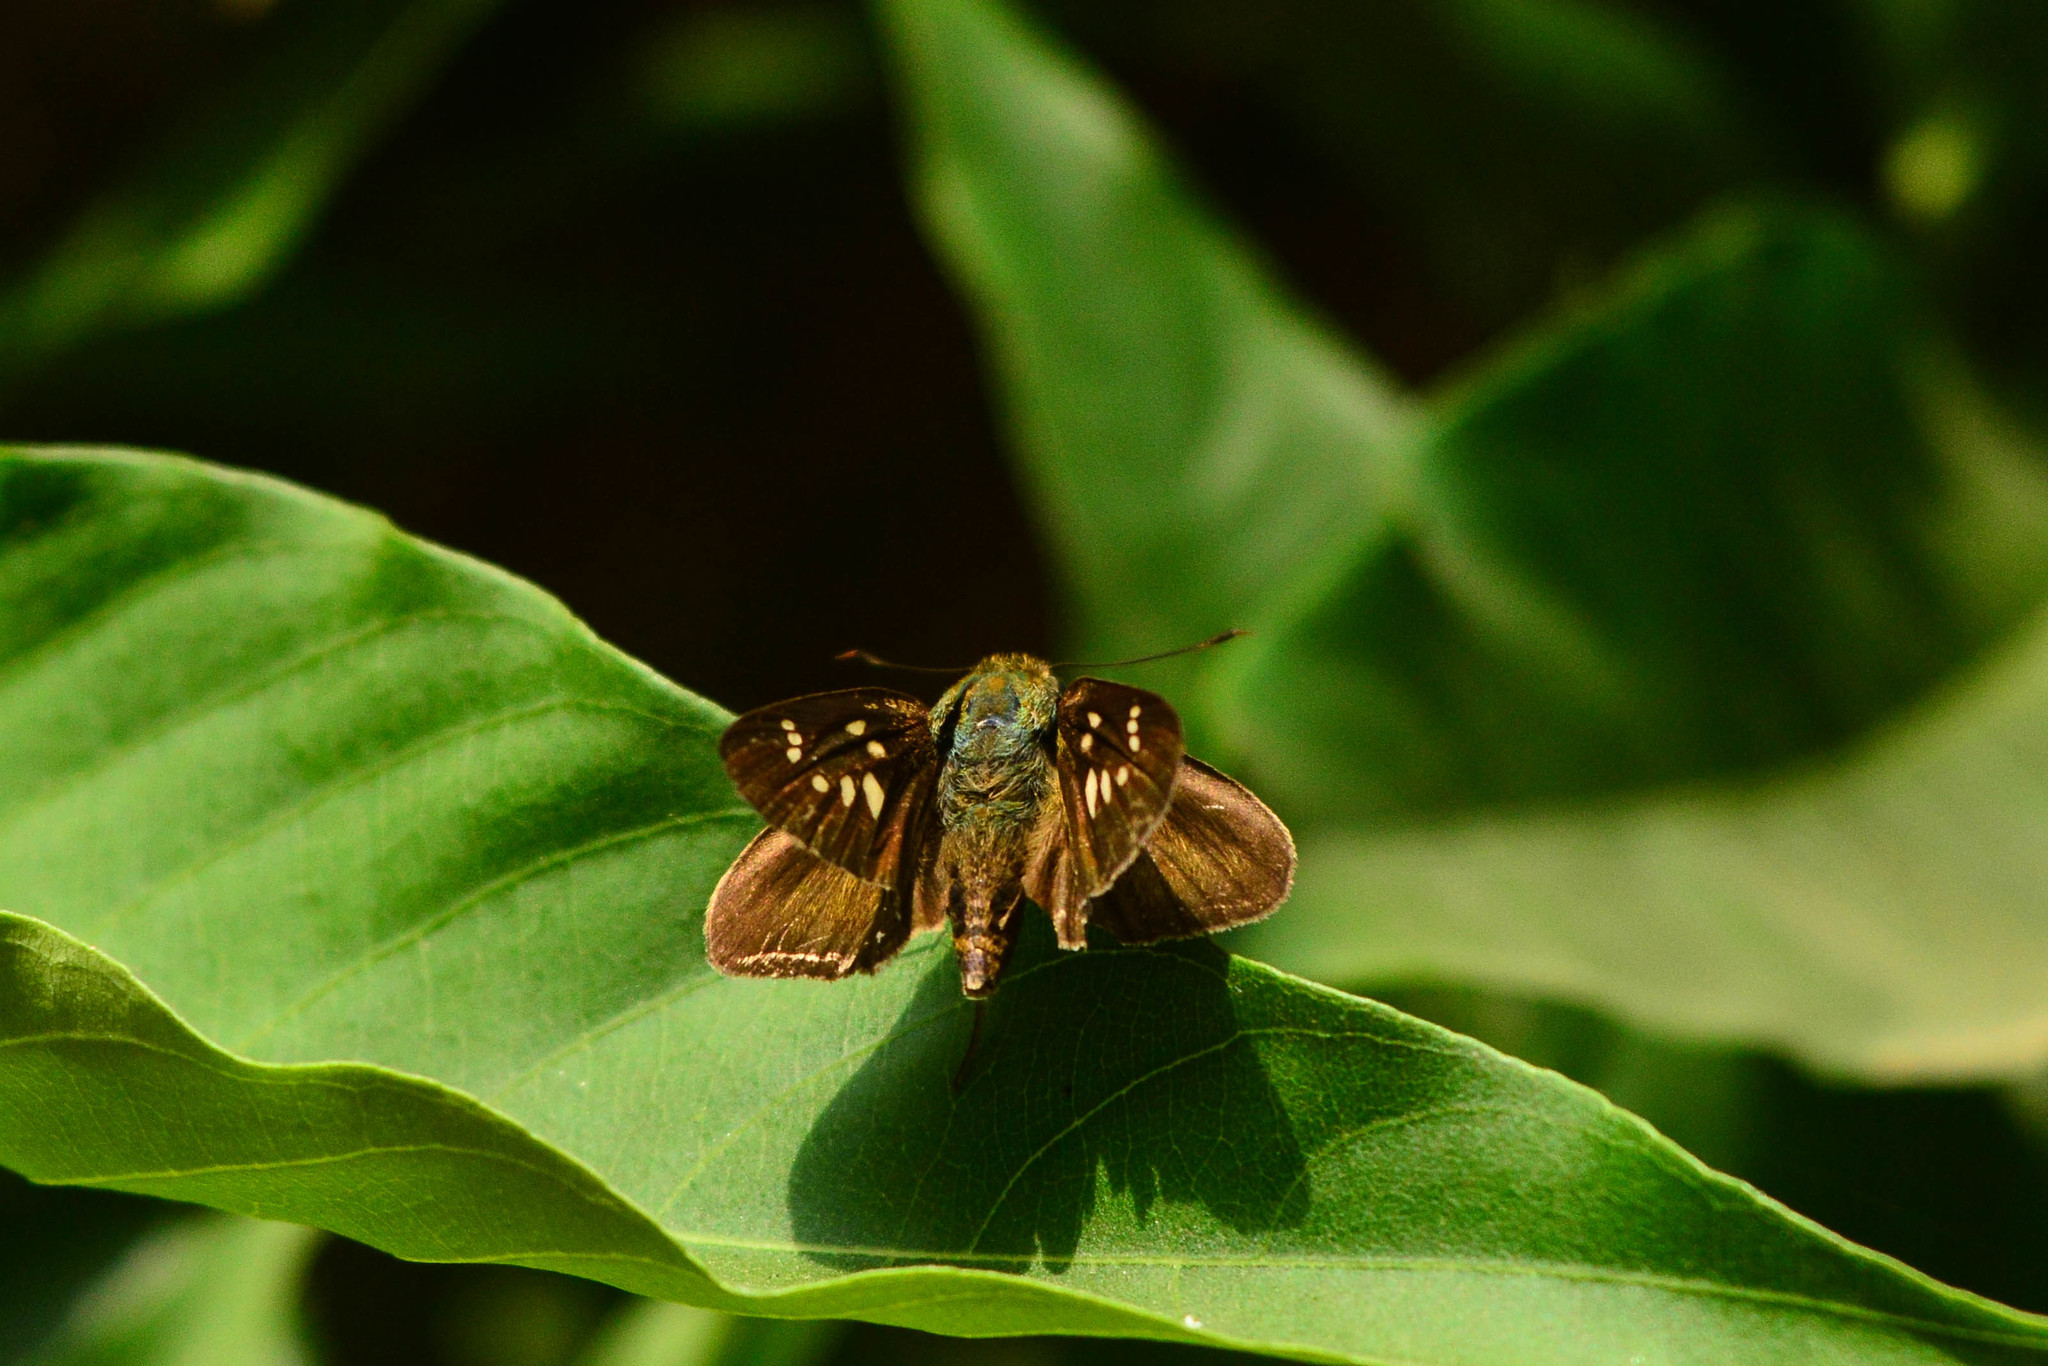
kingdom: Animalia
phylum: Arthropoda
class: Insecta
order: Lepidoptera
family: Hesperiidae
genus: Caltoris
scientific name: Caltoris canaraica
